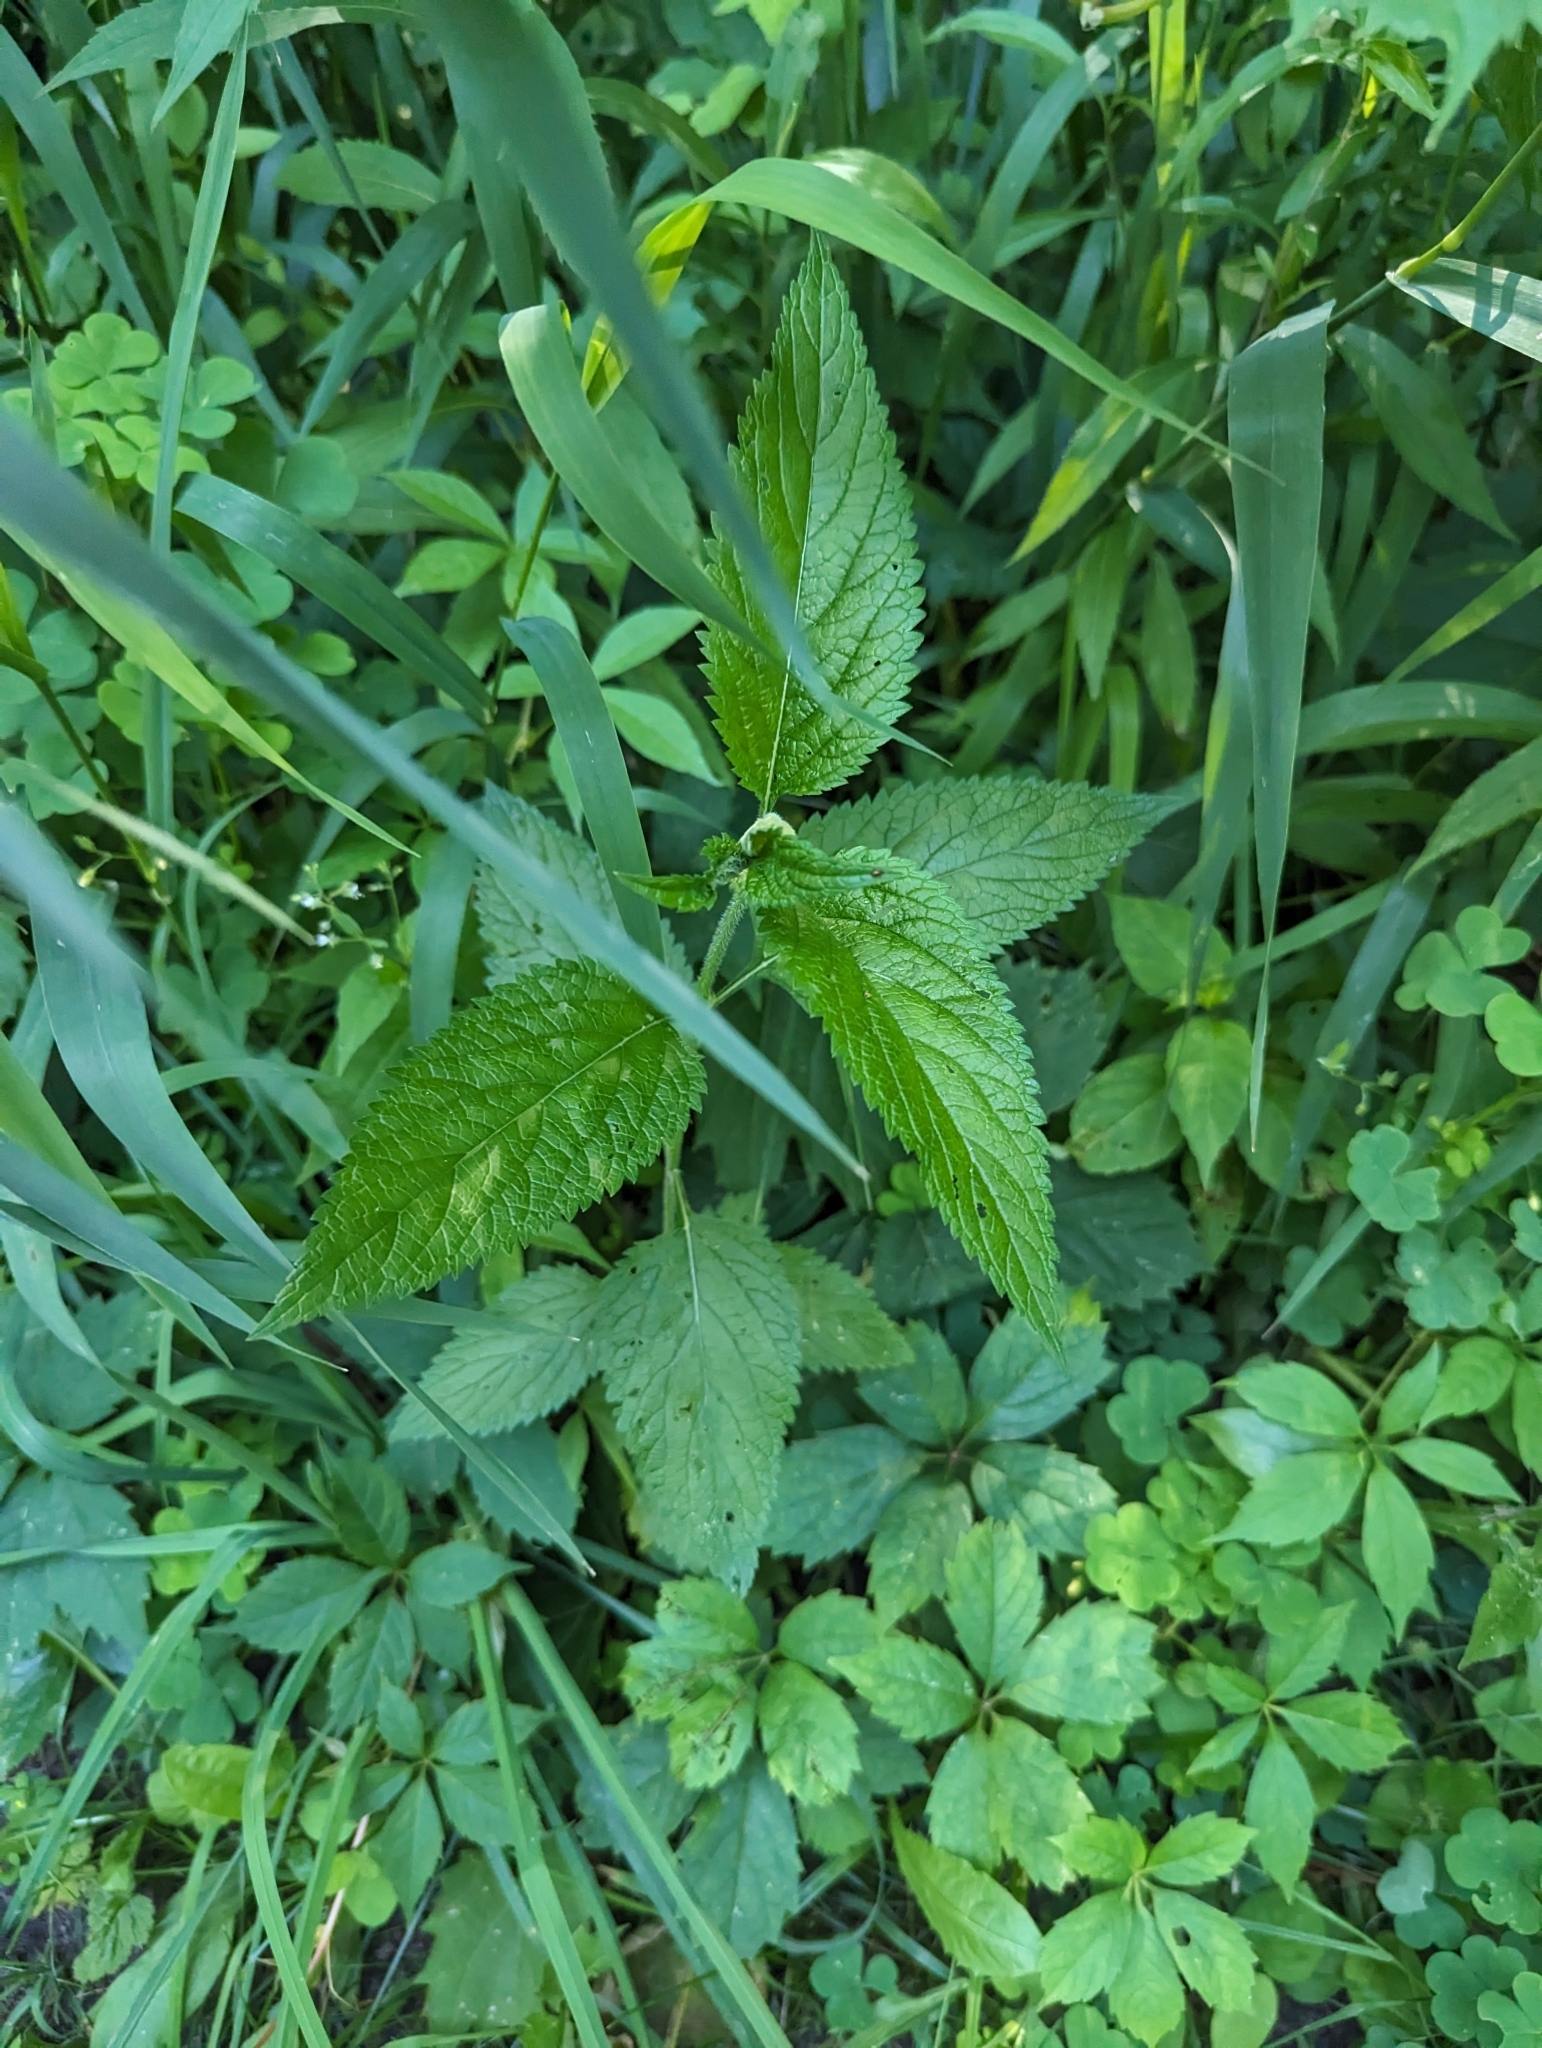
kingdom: Plantae
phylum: Tracheophyta
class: Magnoliopsida
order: Lamiales
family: Verbenaceae
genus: Verbena
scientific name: Verbena urticifolia
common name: Nettle-leaved vervain
